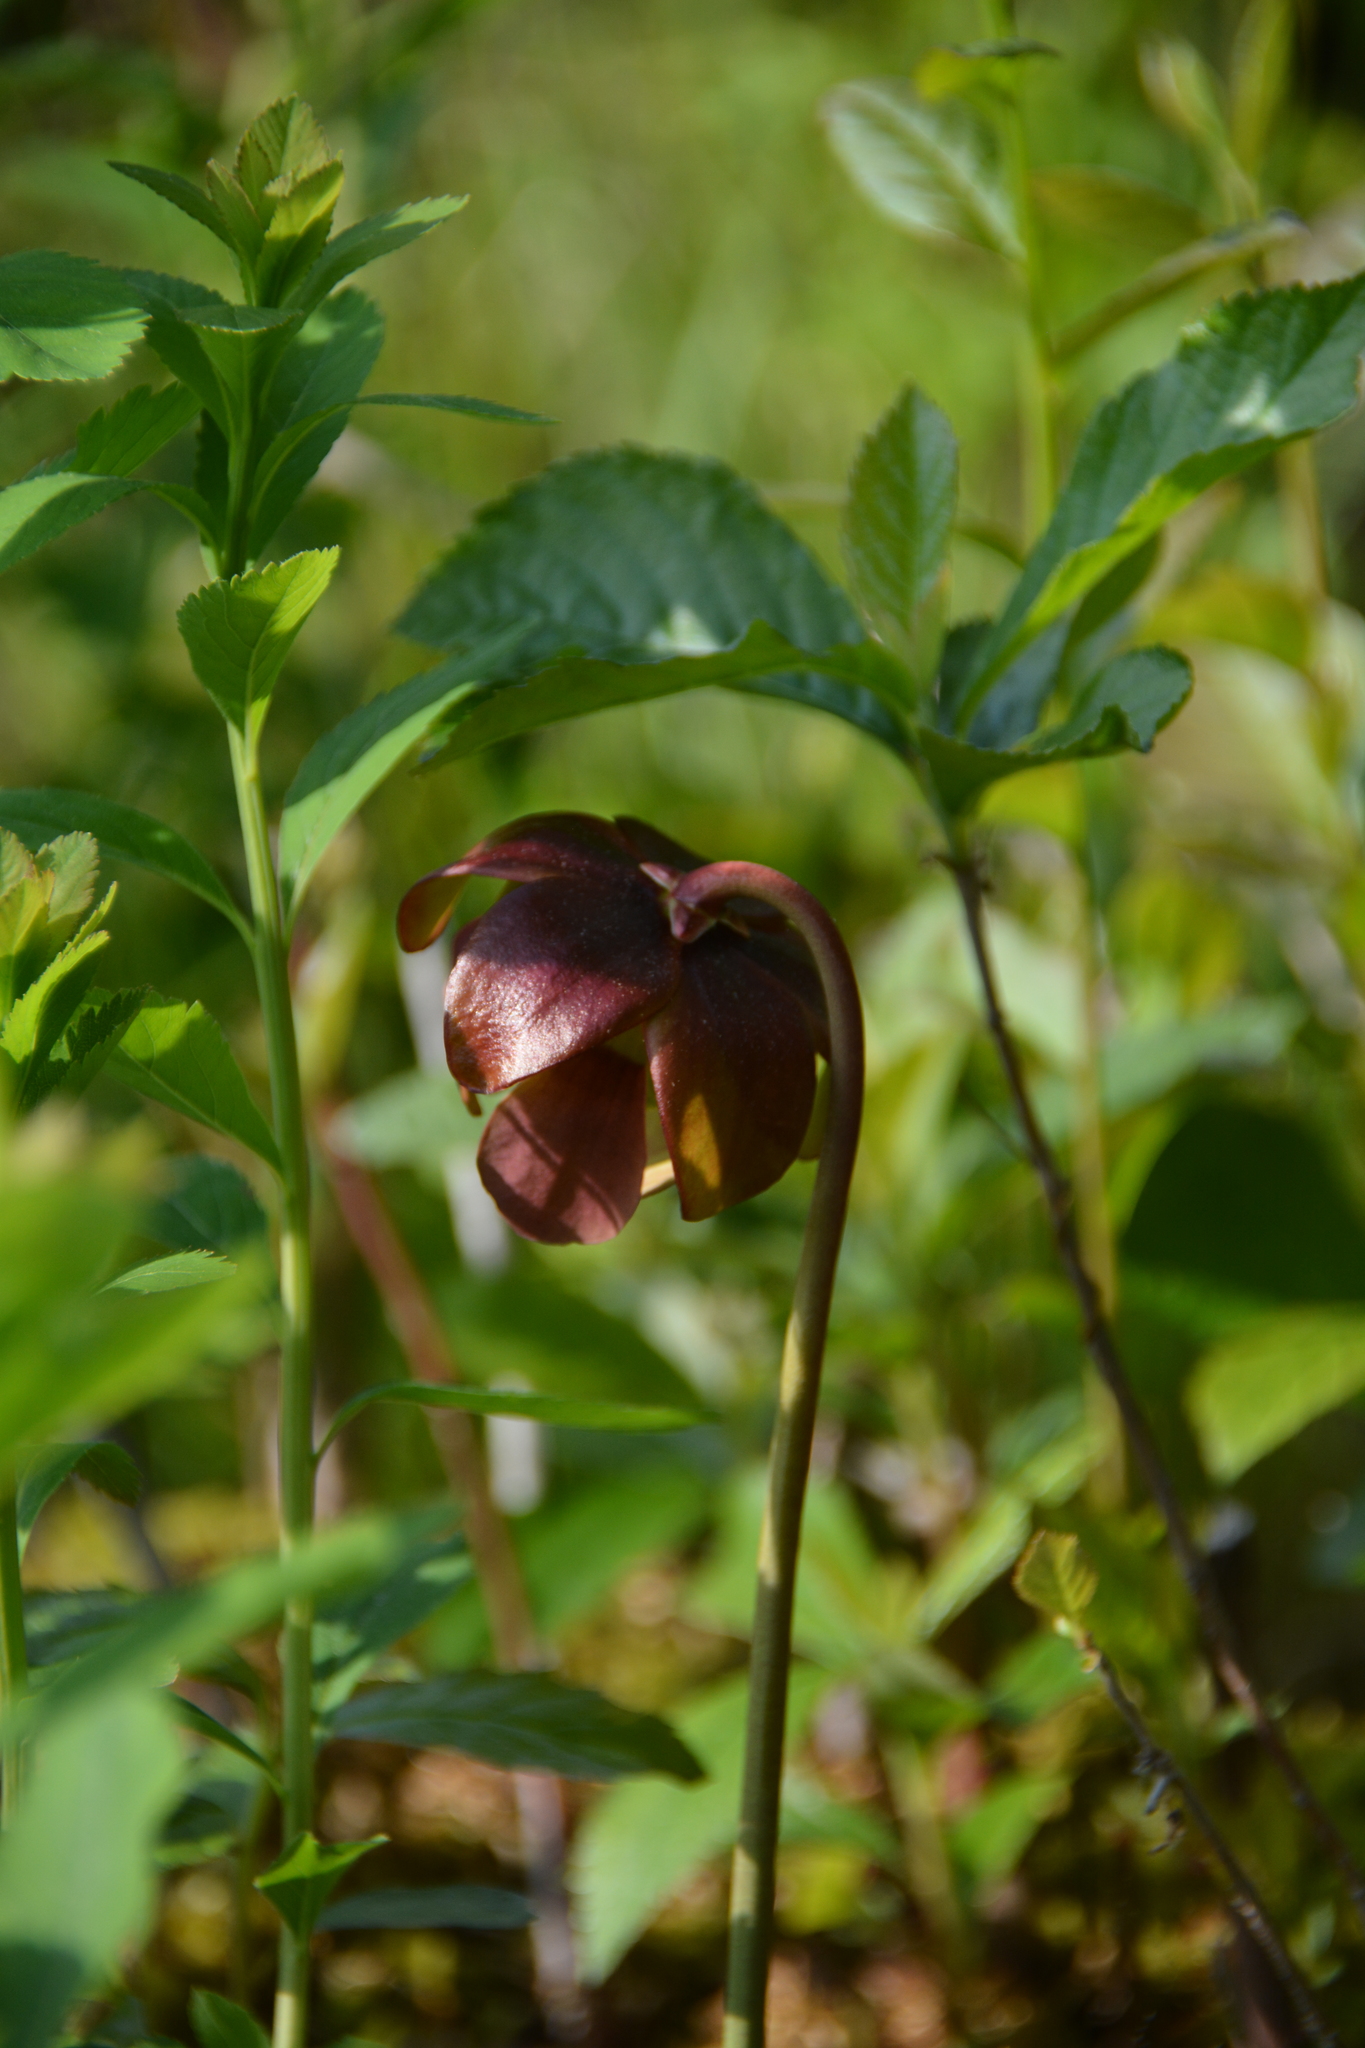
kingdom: Plantae
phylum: Tracheophyta
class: Magnoliopsida
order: Ericales
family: Sarraceniaceae
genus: Sarracenia
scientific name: Sarracenia purpurea
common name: Pitcherplant
